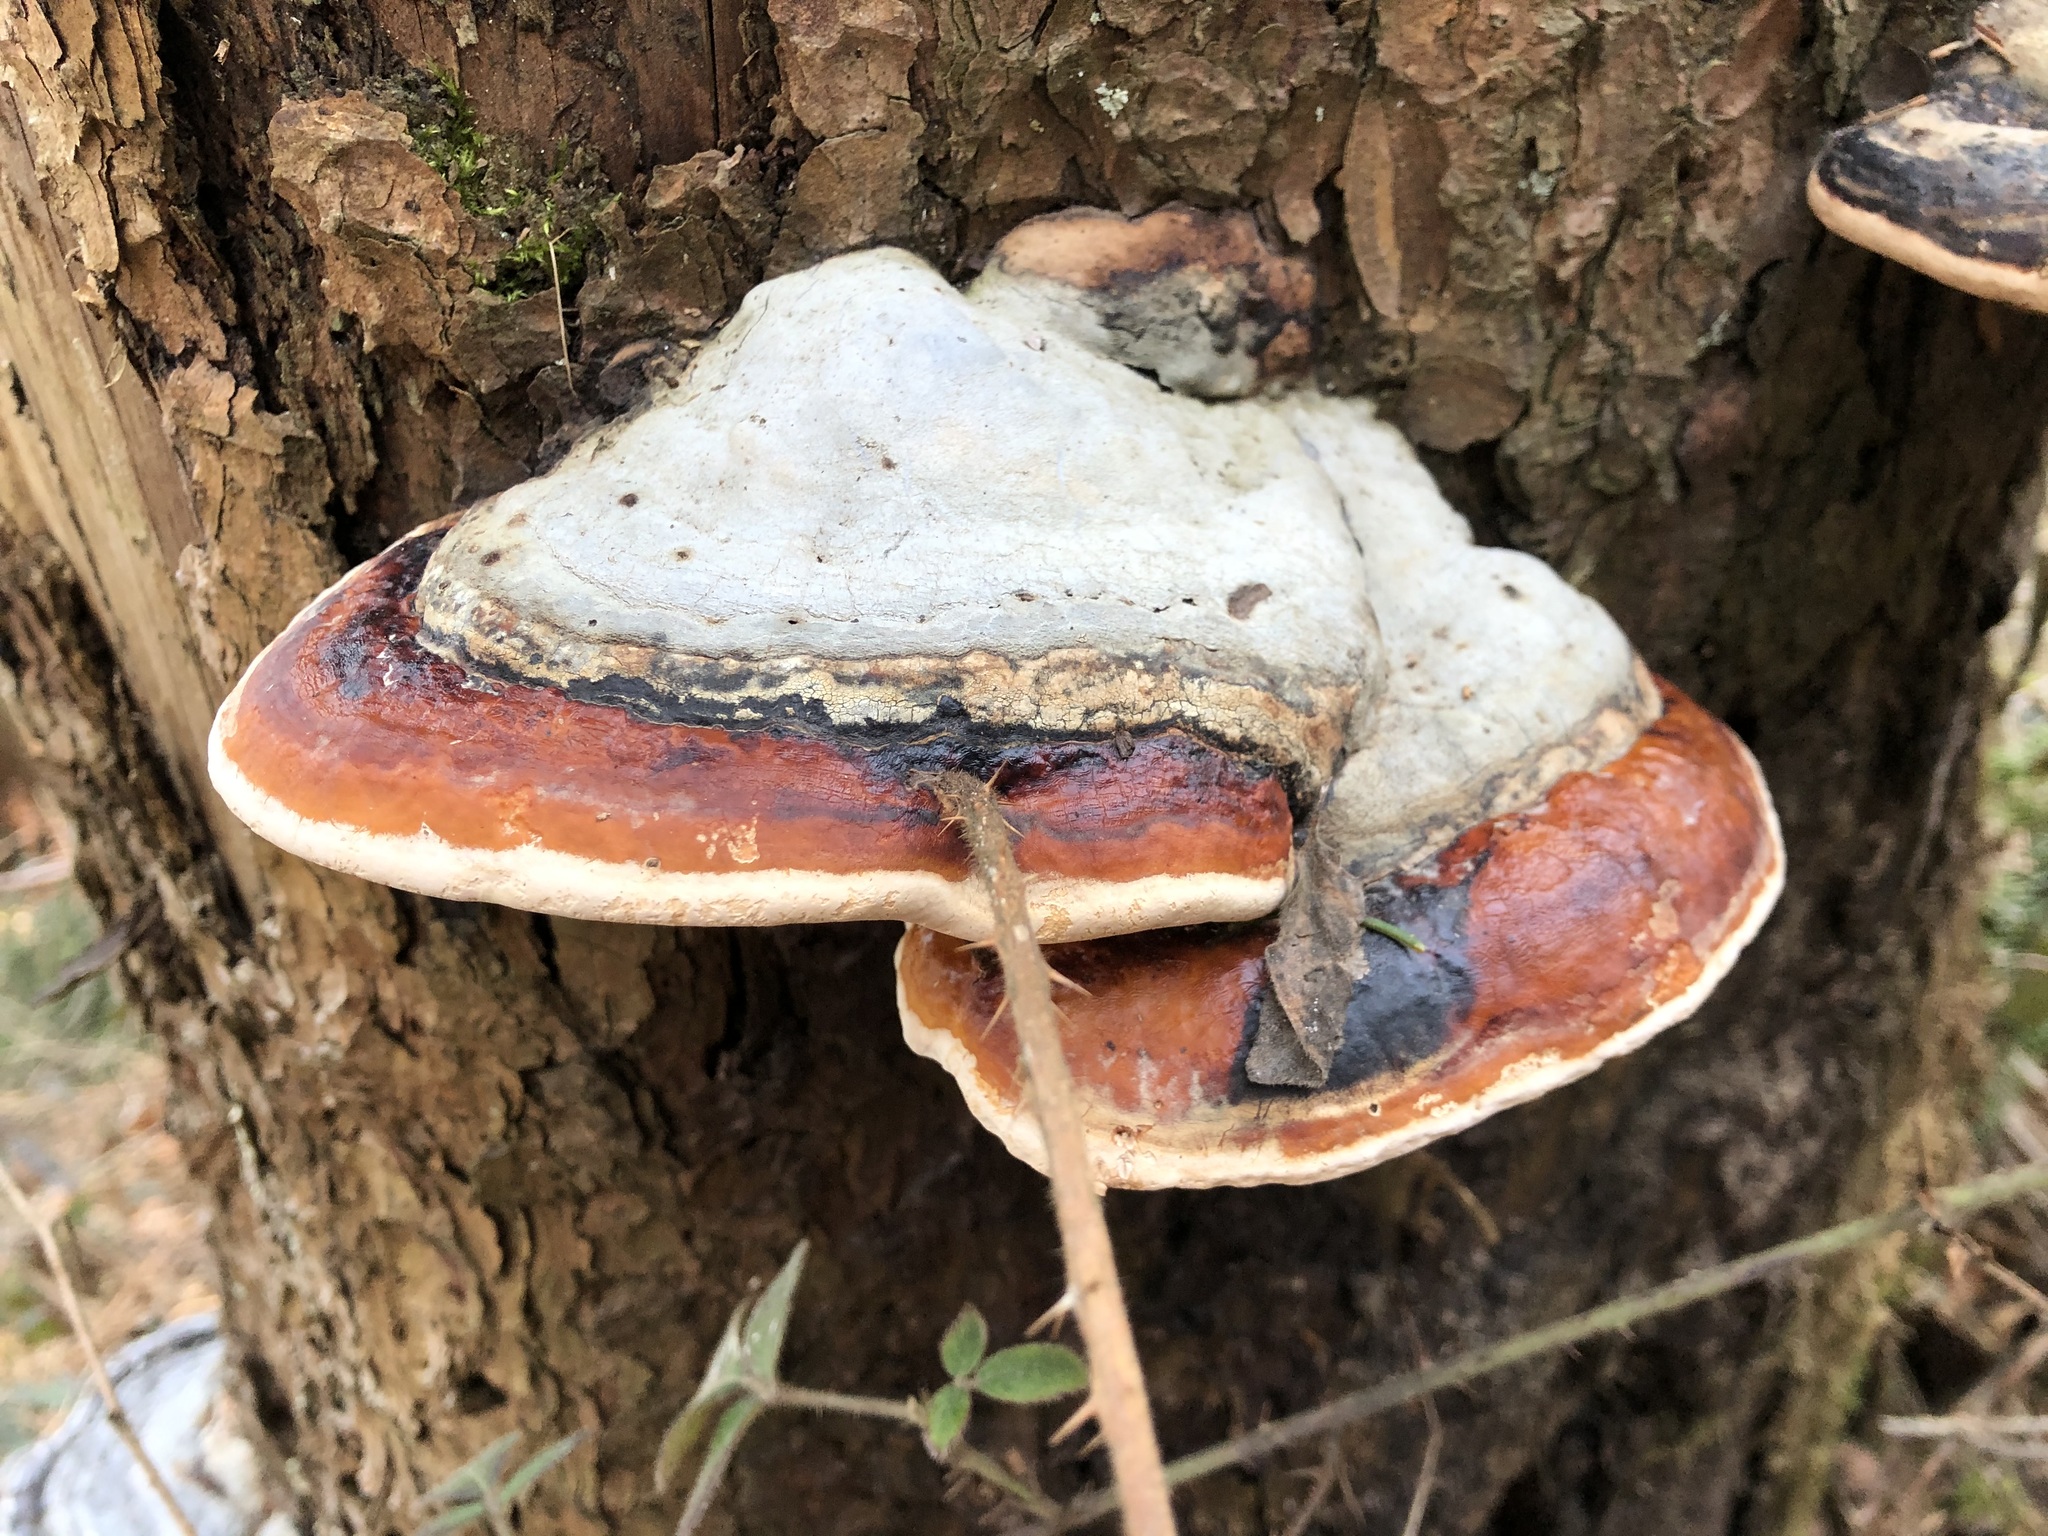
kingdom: Fungi
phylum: Basidiomycota
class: Agaricomycetes
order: Polyporales
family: Fomitopsidaceae
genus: Fomitopsis
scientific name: Fomitopsis pinicola
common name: Red-belted bracket
